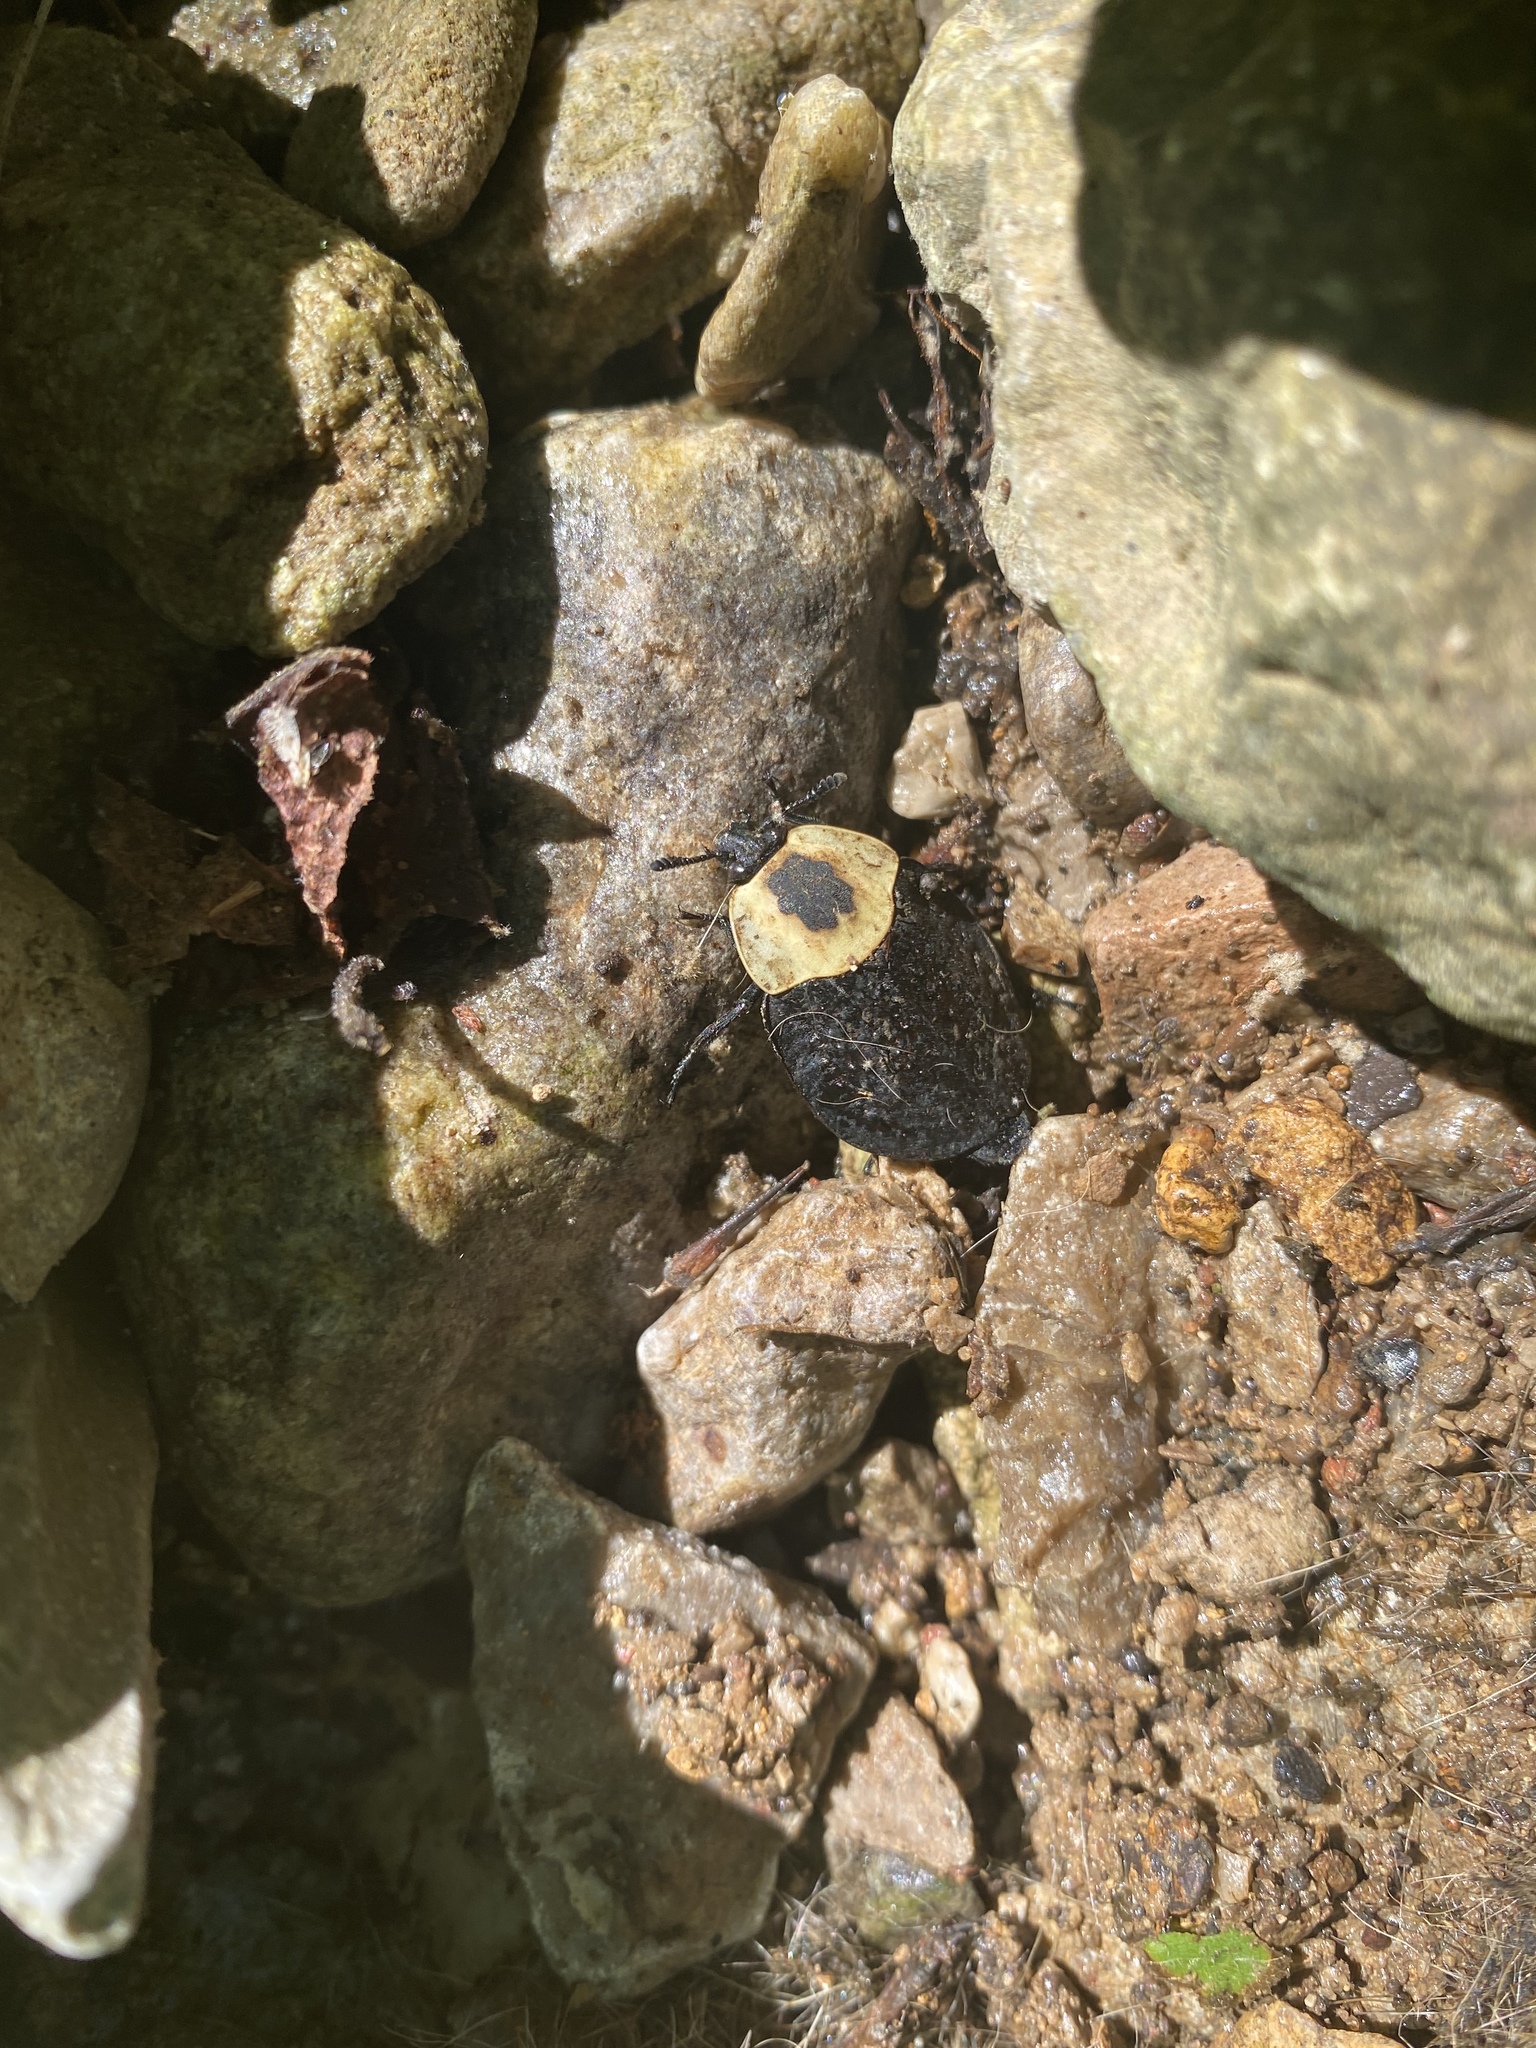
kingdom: Animalia
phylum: Arthropoda
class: Insecta
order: Coleoptera
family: Staphylinidae
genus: Necrophila
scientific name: Necrophila americana
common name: American carrion beetle
